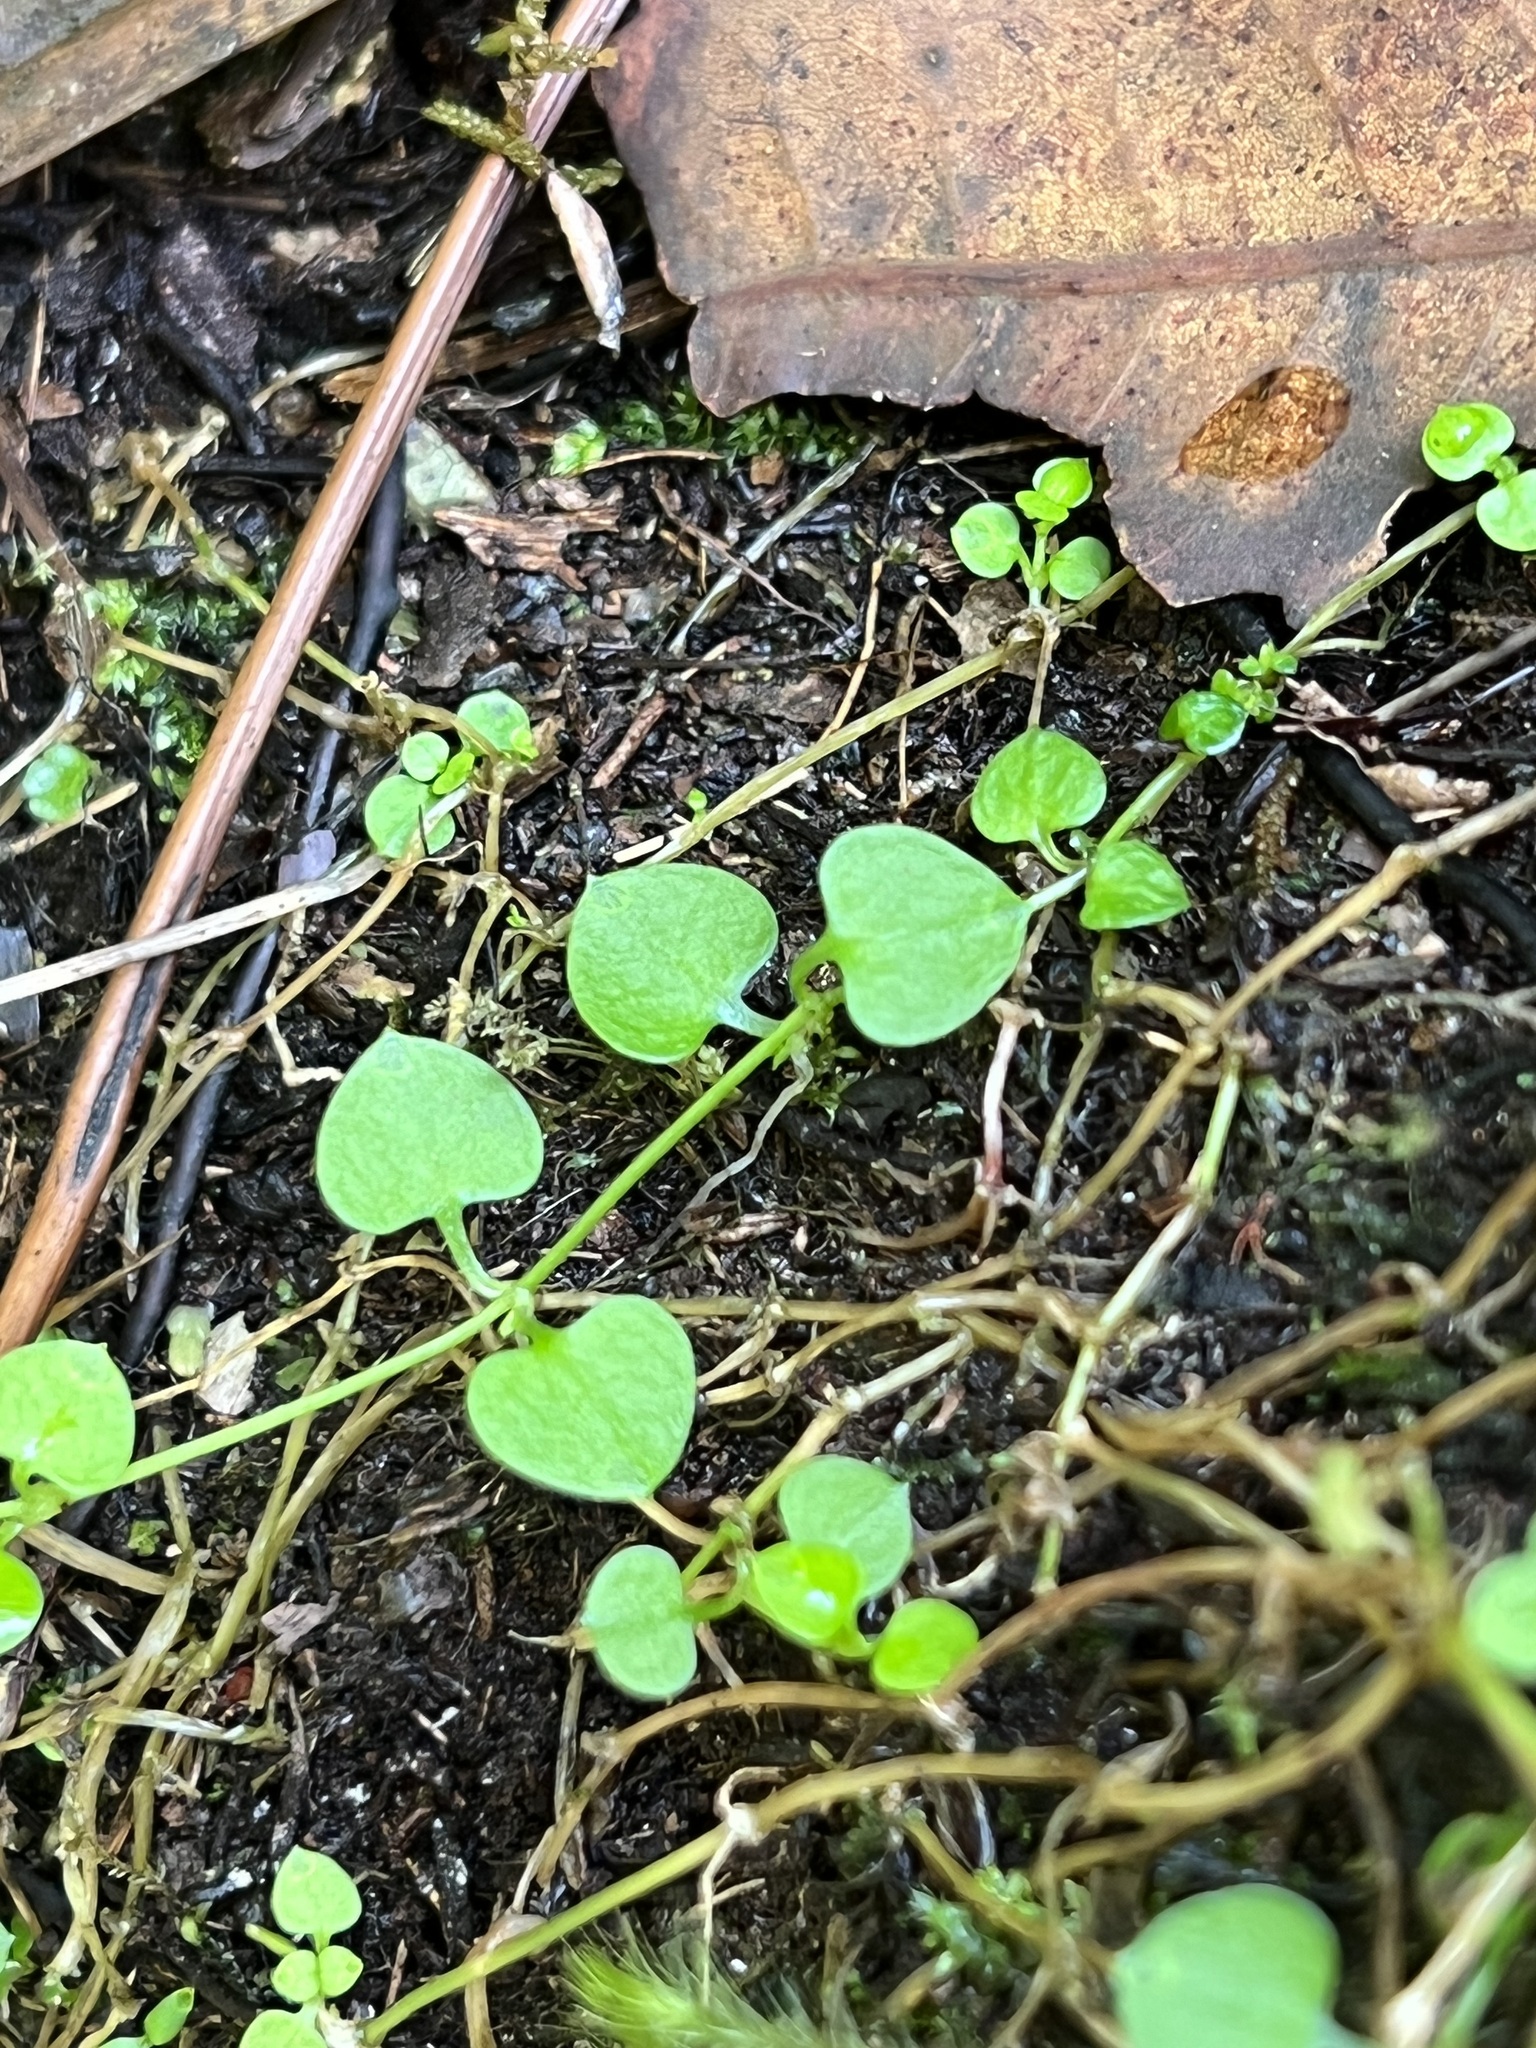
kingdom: Plantae
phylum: Tracheophyta
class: Magnoliopsida
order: Caryophyllales
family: Caryophyllaceae
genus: Stellaria
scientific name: Stellaria parviflora
